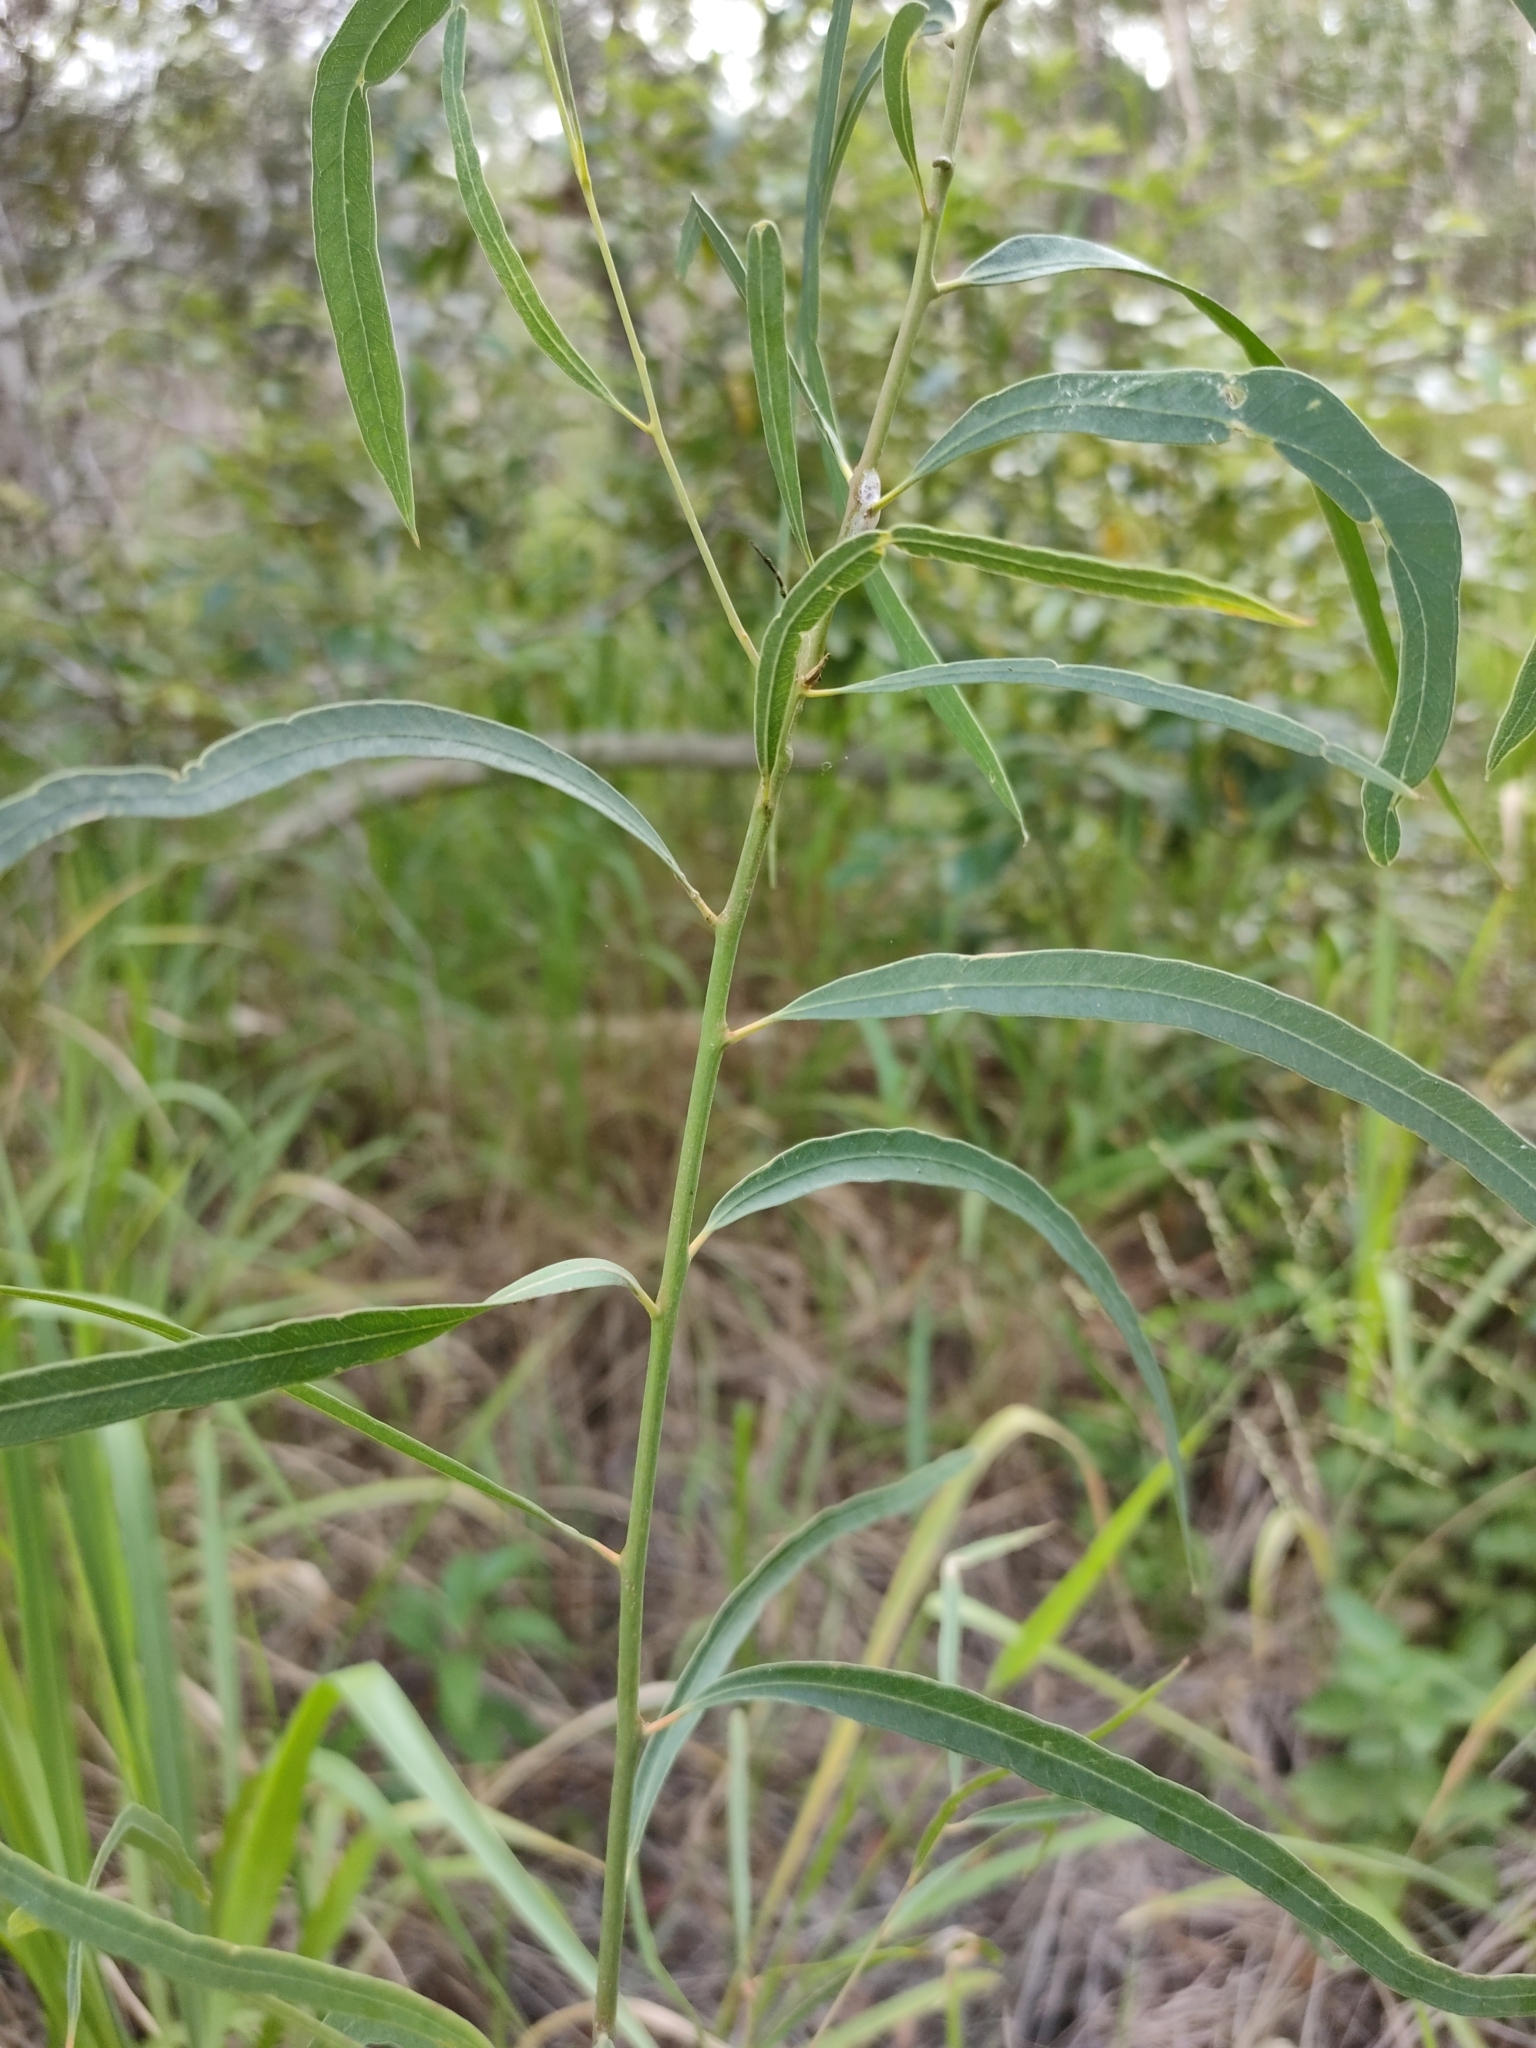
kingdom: Plantae
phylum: Tracheophyta
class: Magnoliopsida
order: Myrtales
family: Myrtaceae
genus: Eucalyptus
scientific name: Eucalyptus exserta
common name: Peppermint-bendo
